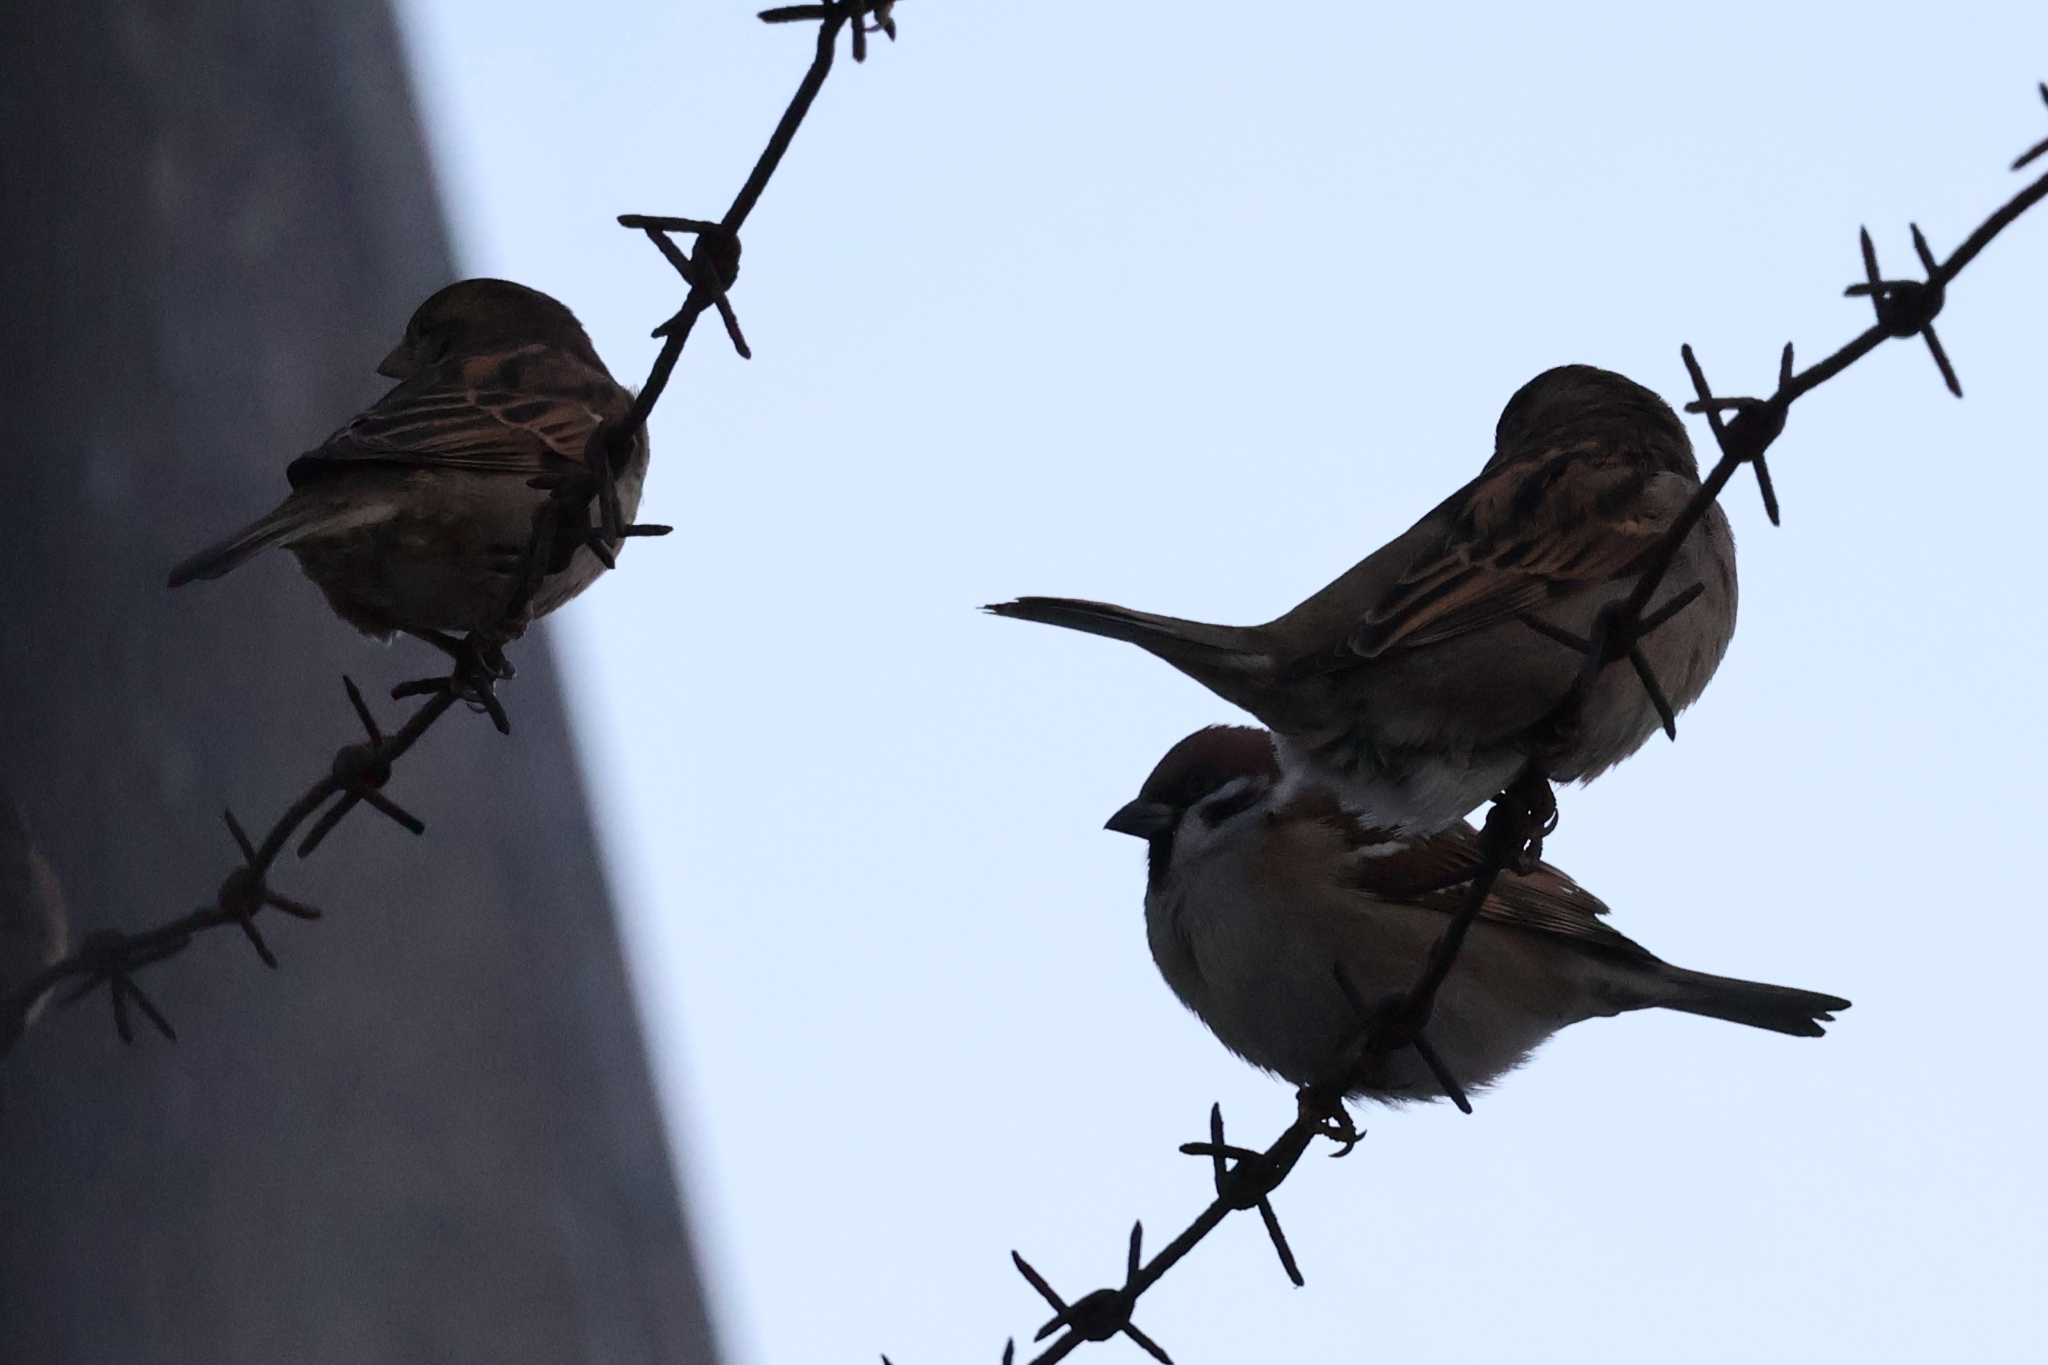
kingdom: Animalia
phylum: Chordata
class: Aves
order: Passeriformes
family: Passeridae
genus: Passer
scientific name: Passer montanus
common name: Eurasian tree sparrow
